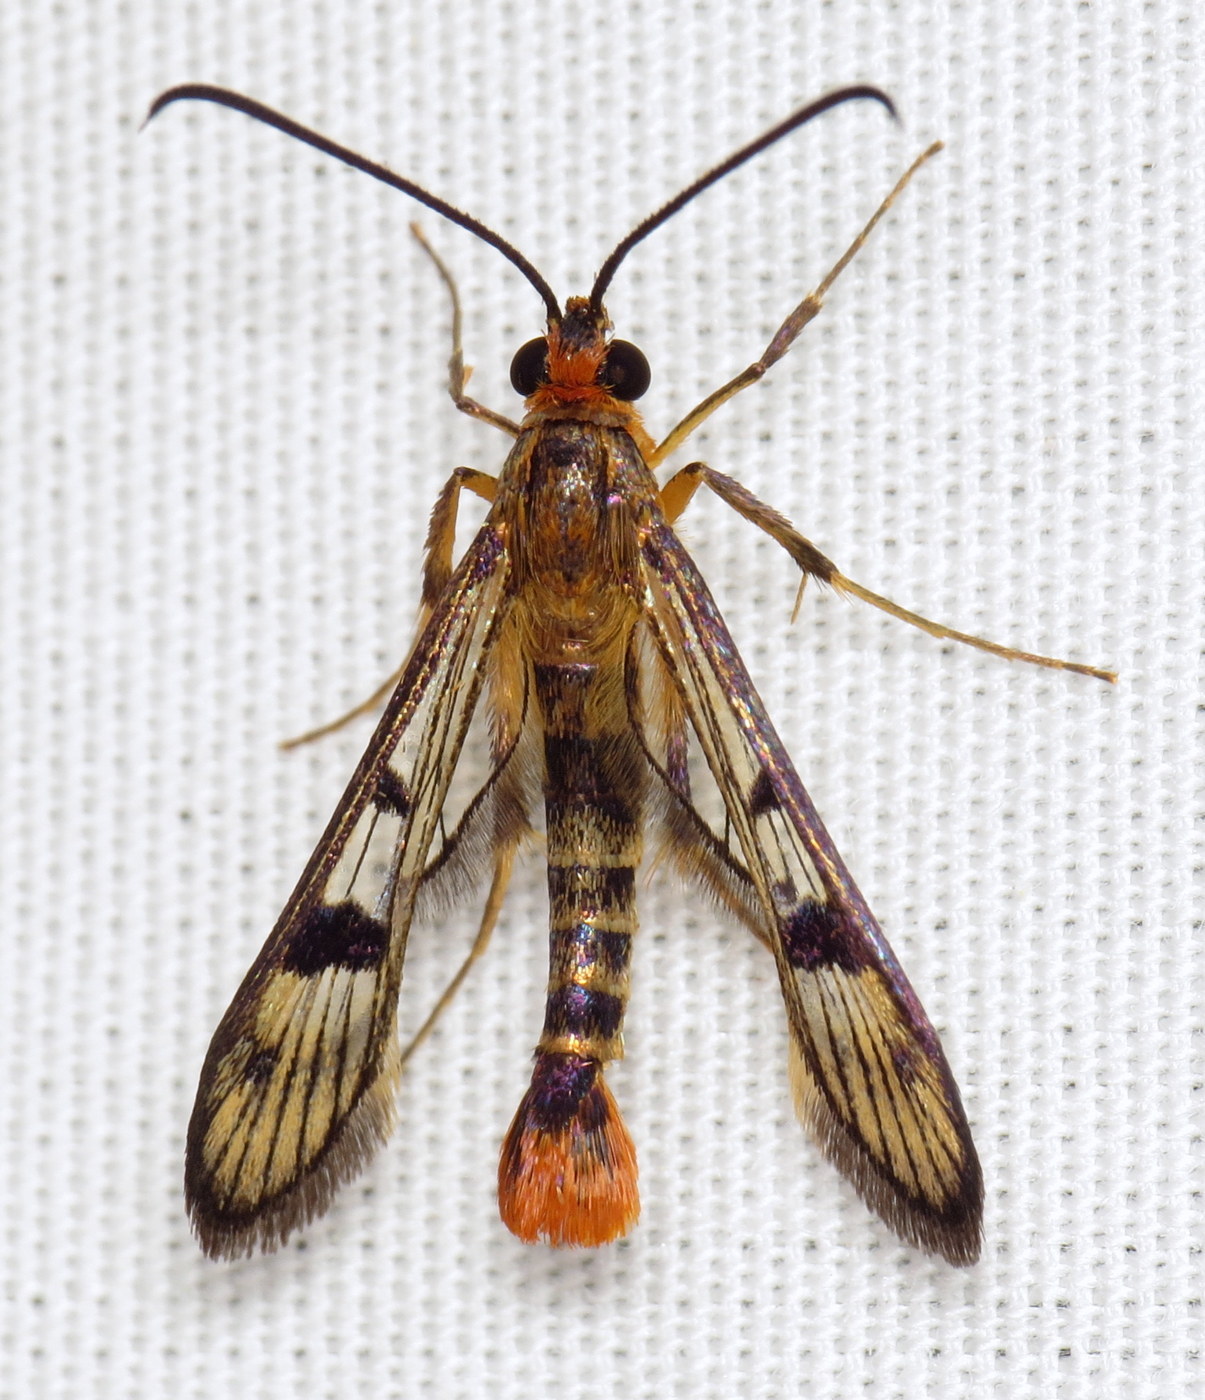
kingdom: Animalia
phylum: Arthropoda
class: Insecta
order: Lepidoptera
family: Sesiidae
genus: Synanthedon
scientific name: Synanthedon acerni
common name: Maple callus borer moth
